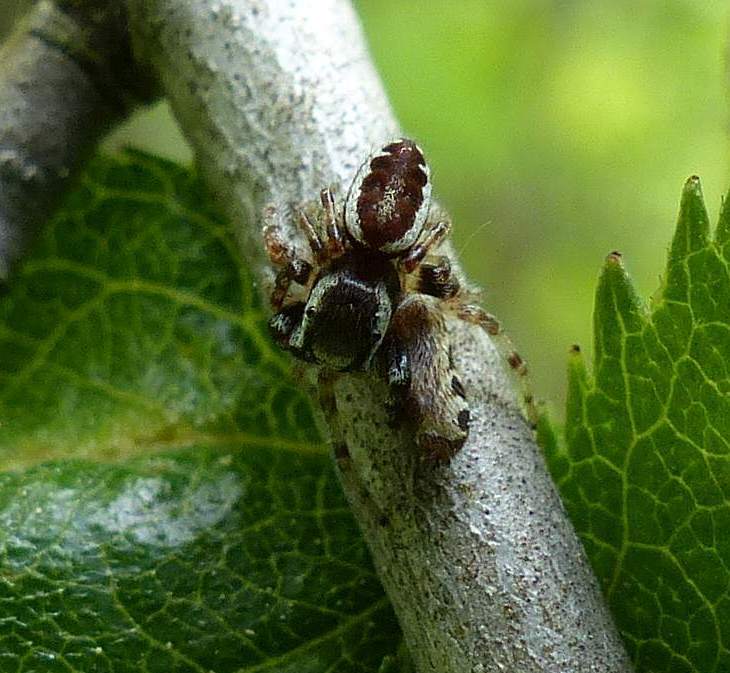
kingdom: Animalia
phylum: Arthropoda
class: Arachnida
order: Araneae
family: Salticidae
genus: Pelegrina
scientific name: Pelegrina proterva
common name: Common white-cheeked jumping spider
